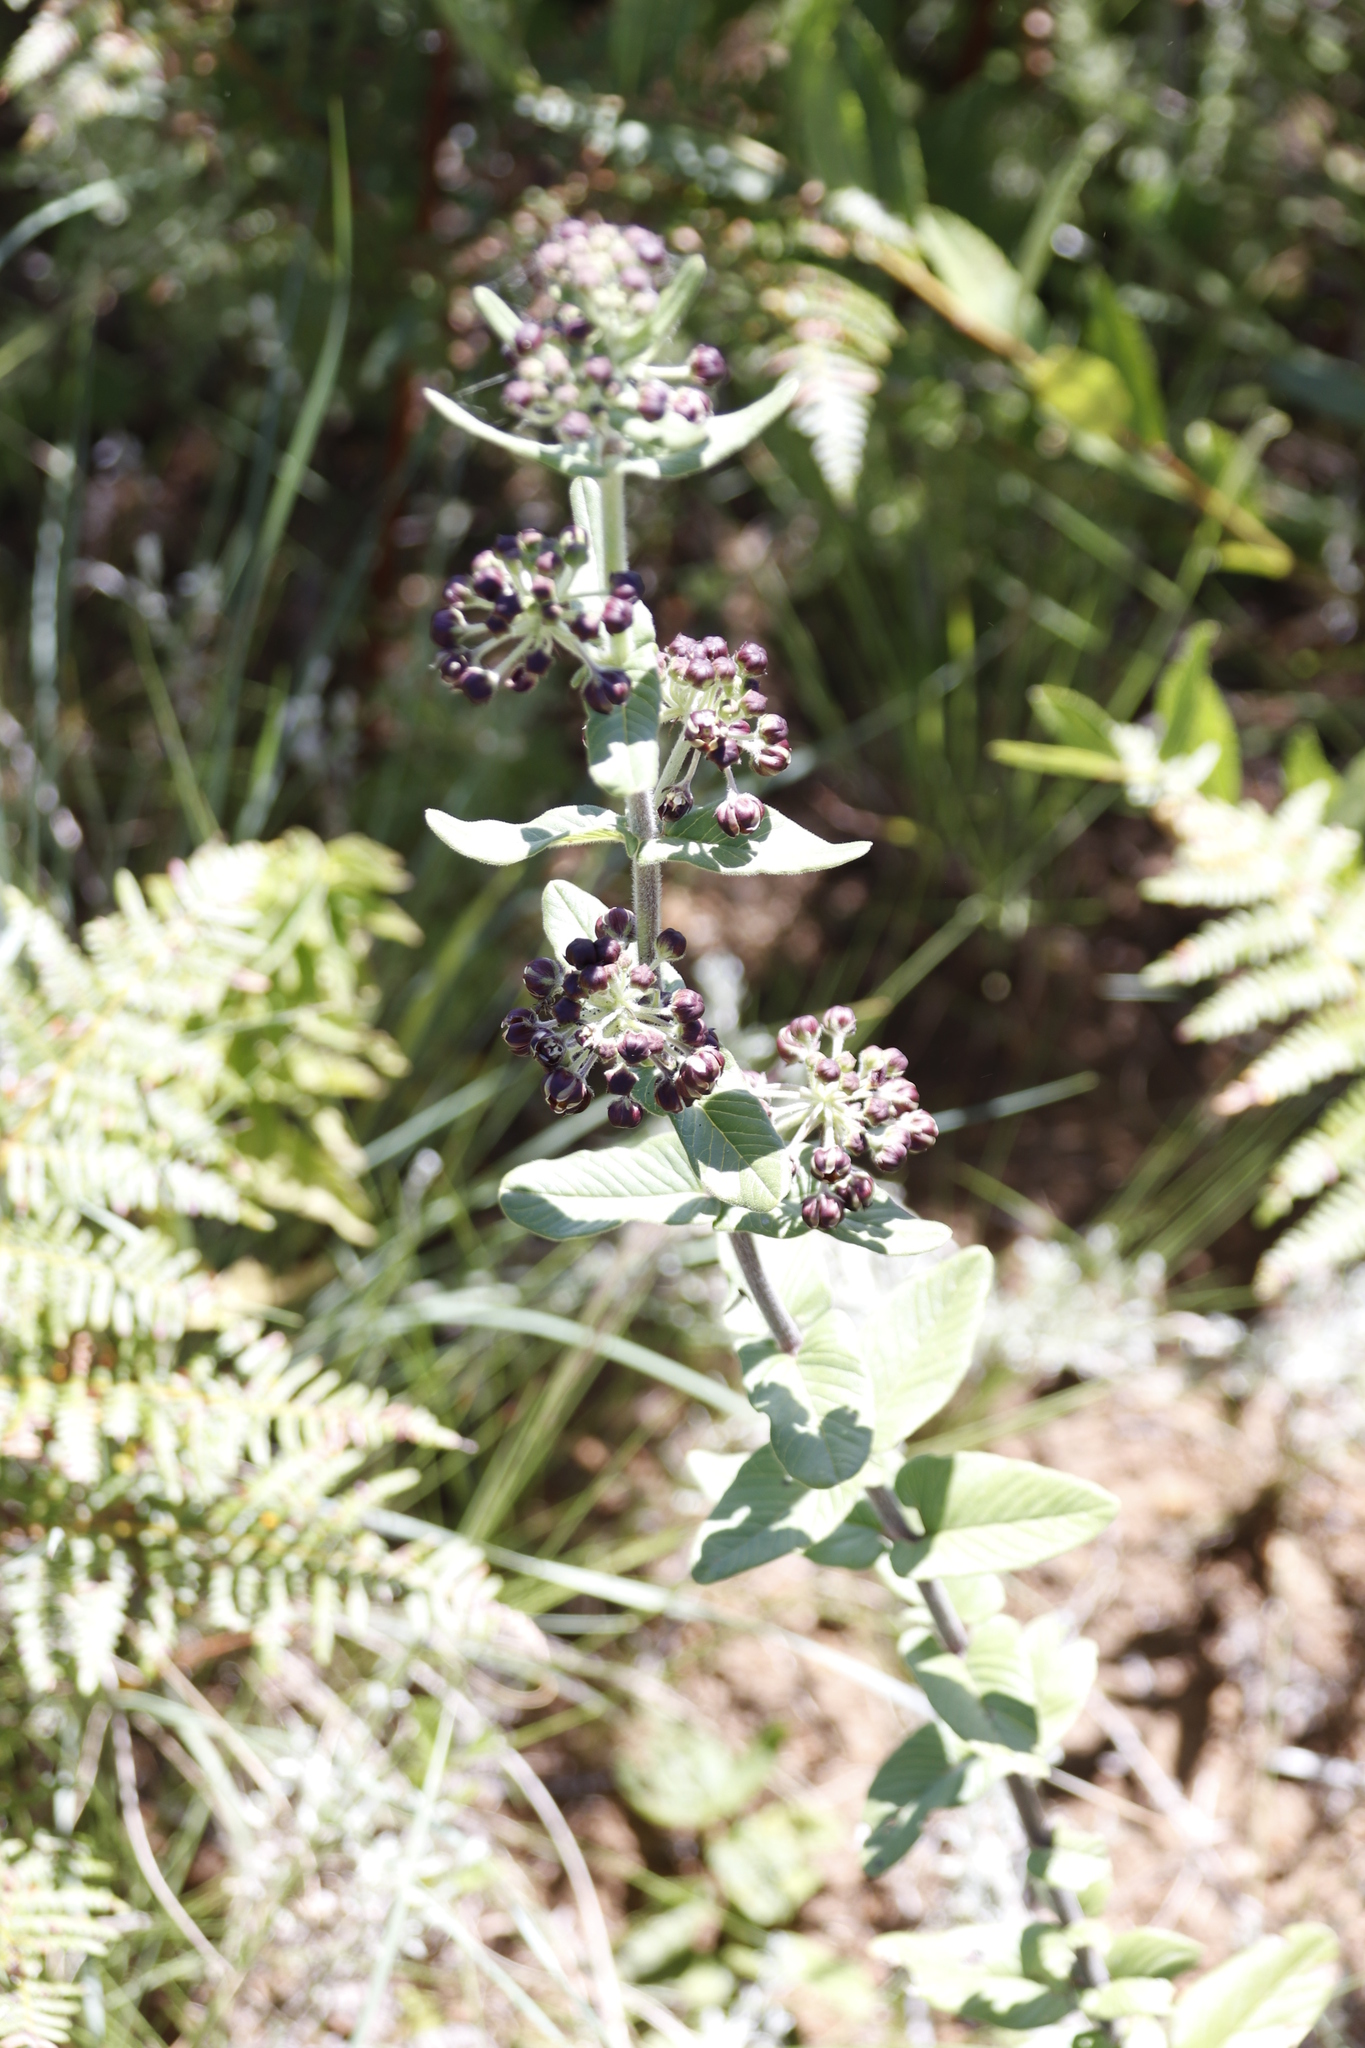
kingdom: Plantae
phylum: Tracheophyta
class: Magnoliopsida
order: Gentianales
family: Apocynaceae
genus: Schizoglossum
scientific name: Schizoglossum atropurpureum
